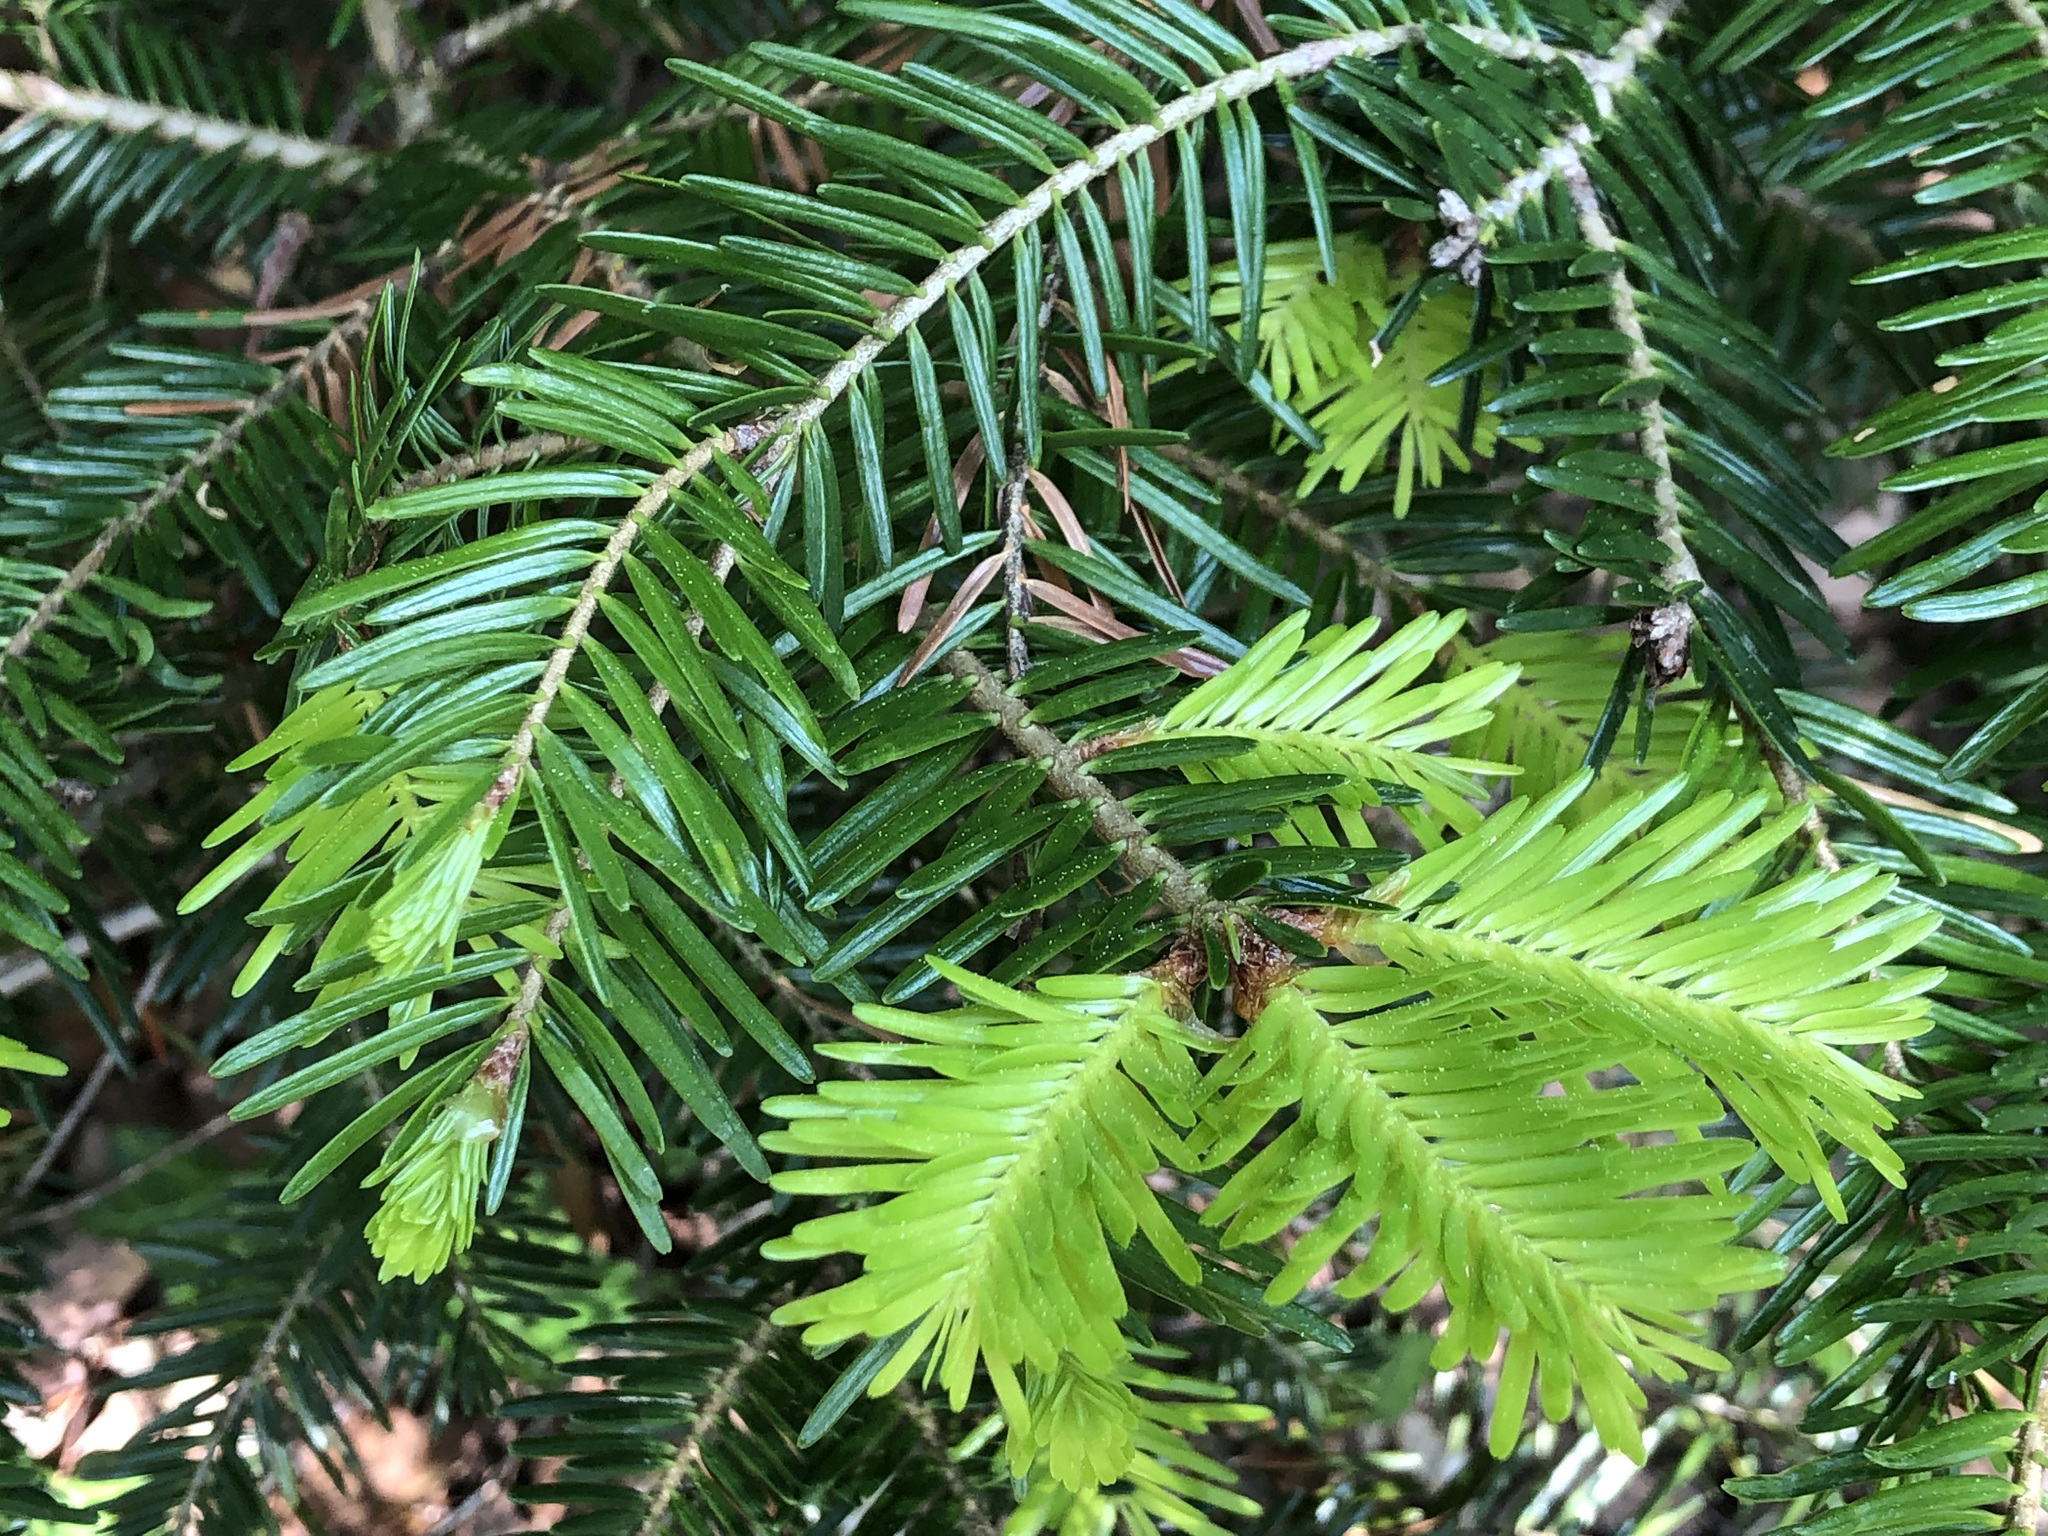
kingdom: Plantae
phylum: Tracheophyta
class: Pinopsida
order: Pinales
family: Pinaceae
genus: Abies
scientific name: Abies alba
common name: Silver fir
